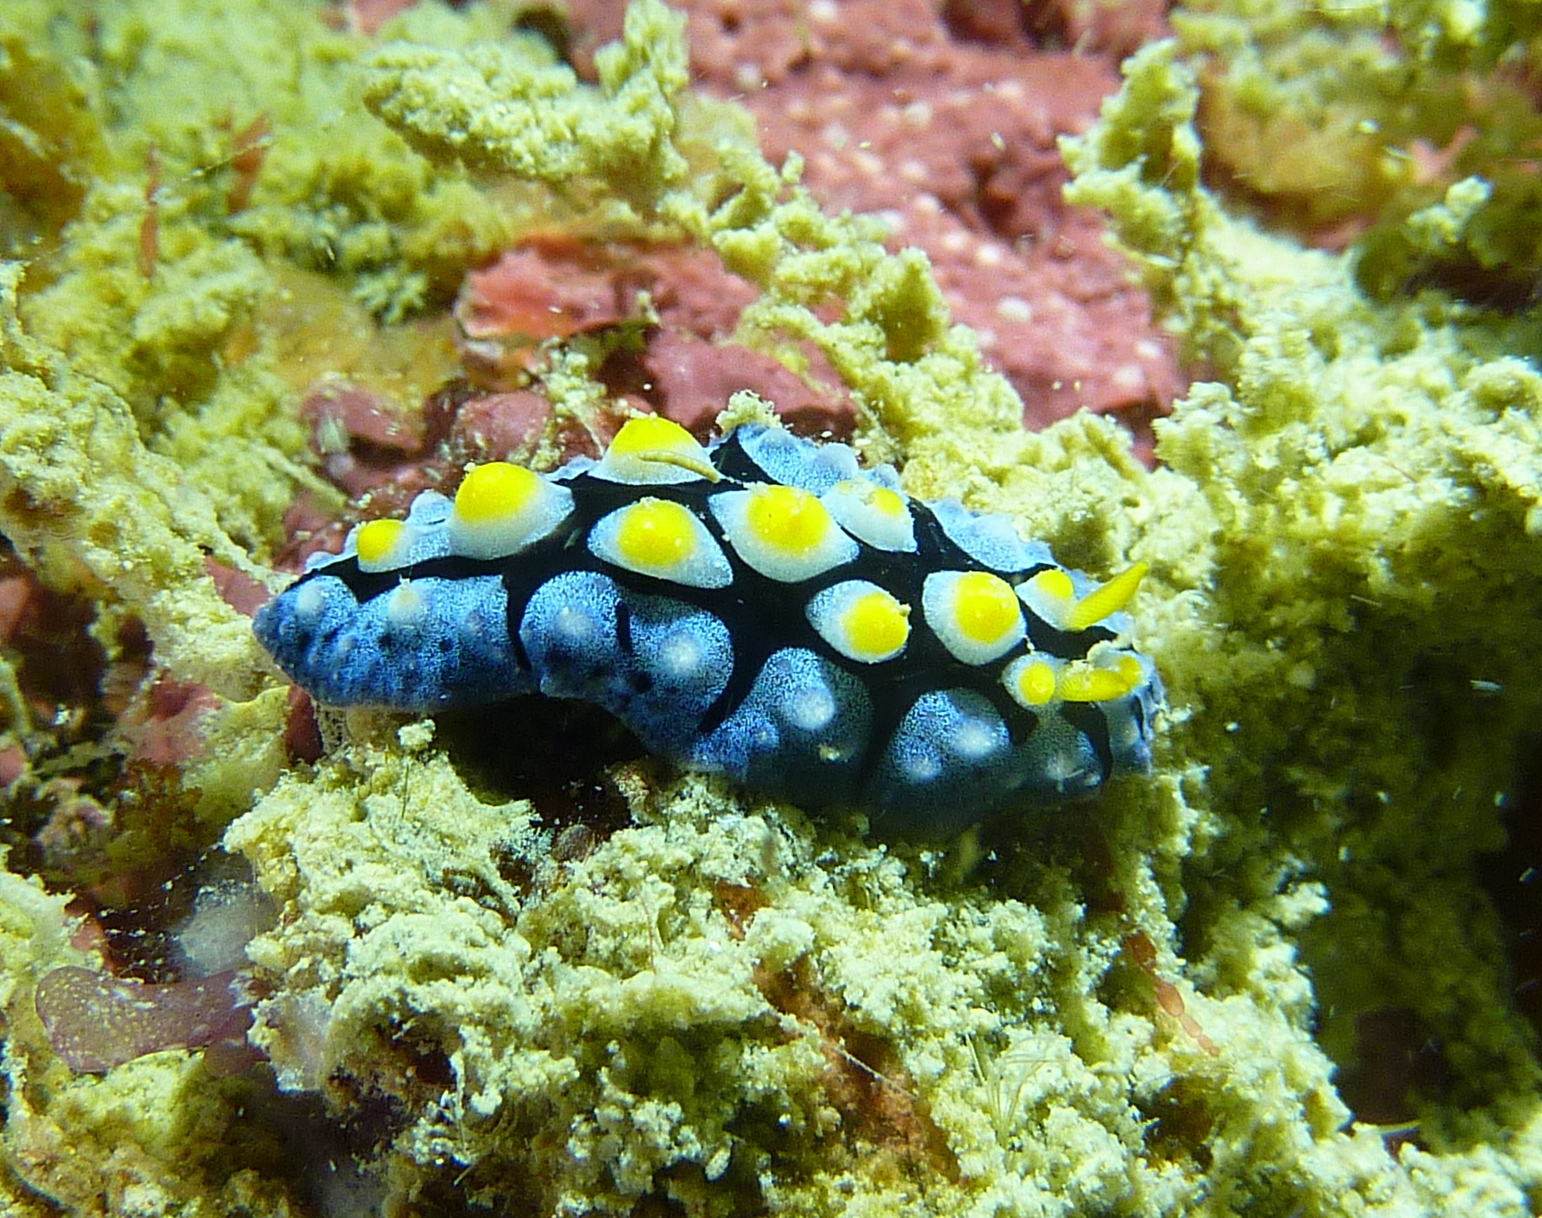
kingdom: Animalia
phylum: Mollusca
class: Gastropoda
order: Nudibranchia
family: Phyllidiidae
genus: Phyllidia
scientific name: Phyllidia picta
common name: Black-rayed phyllidia
